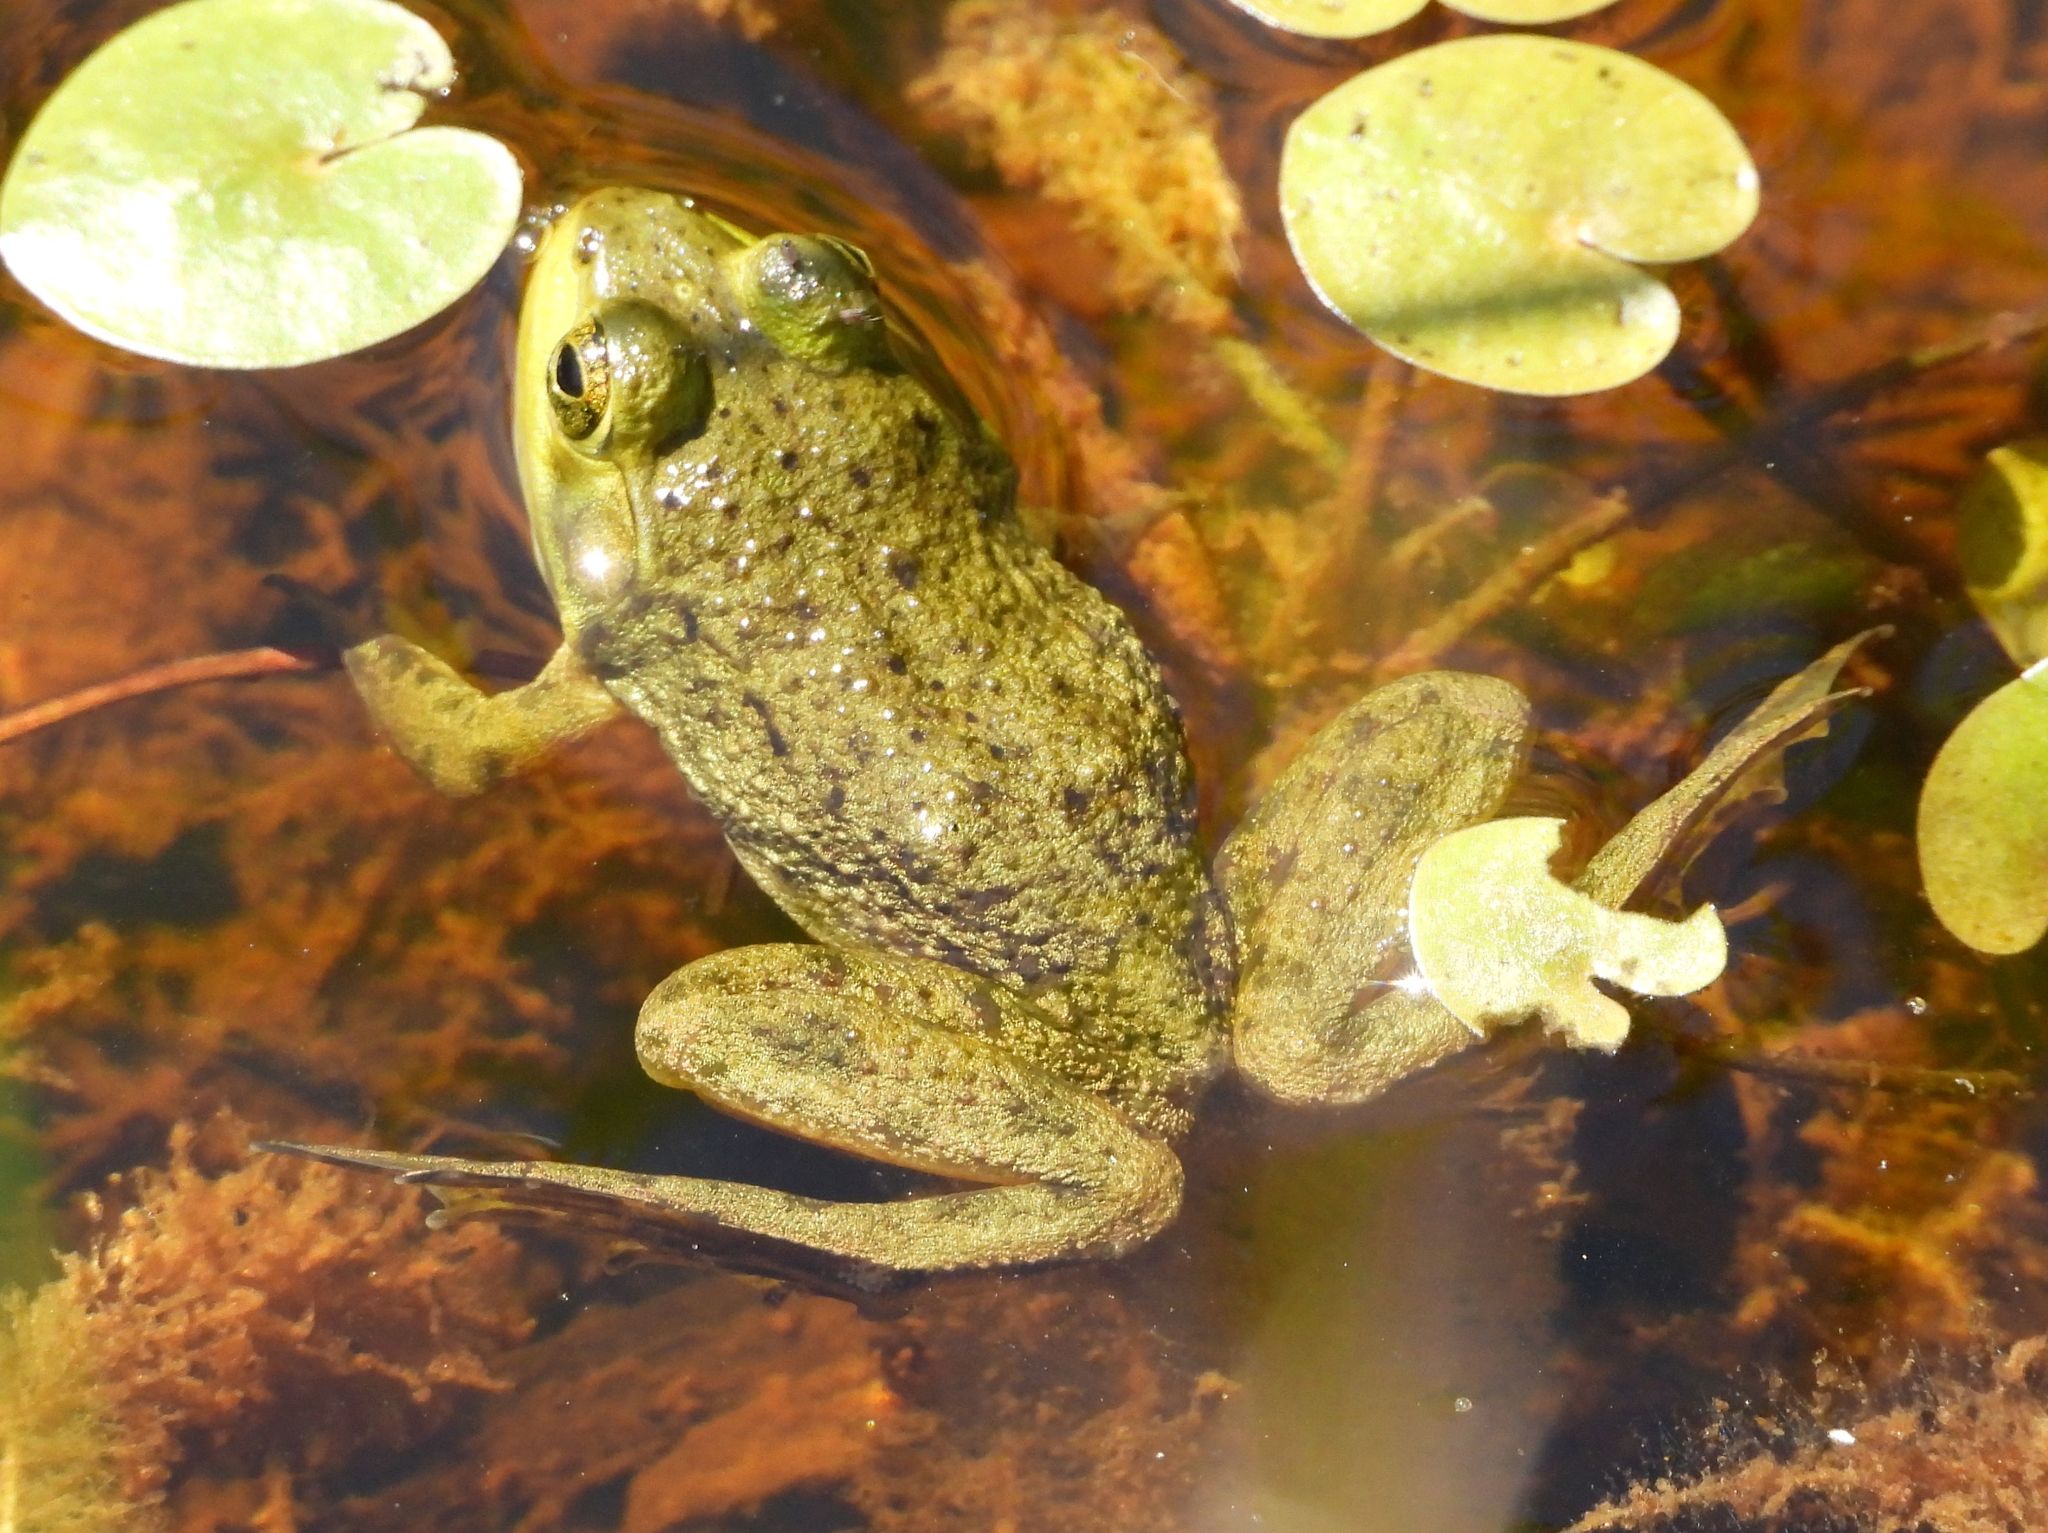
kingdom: Animalia
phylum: Chordata
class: Amphibia
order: Anura
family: Ranidae
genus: Lithobates
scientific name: Lithobates catesbeianus
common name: American bullfrog
